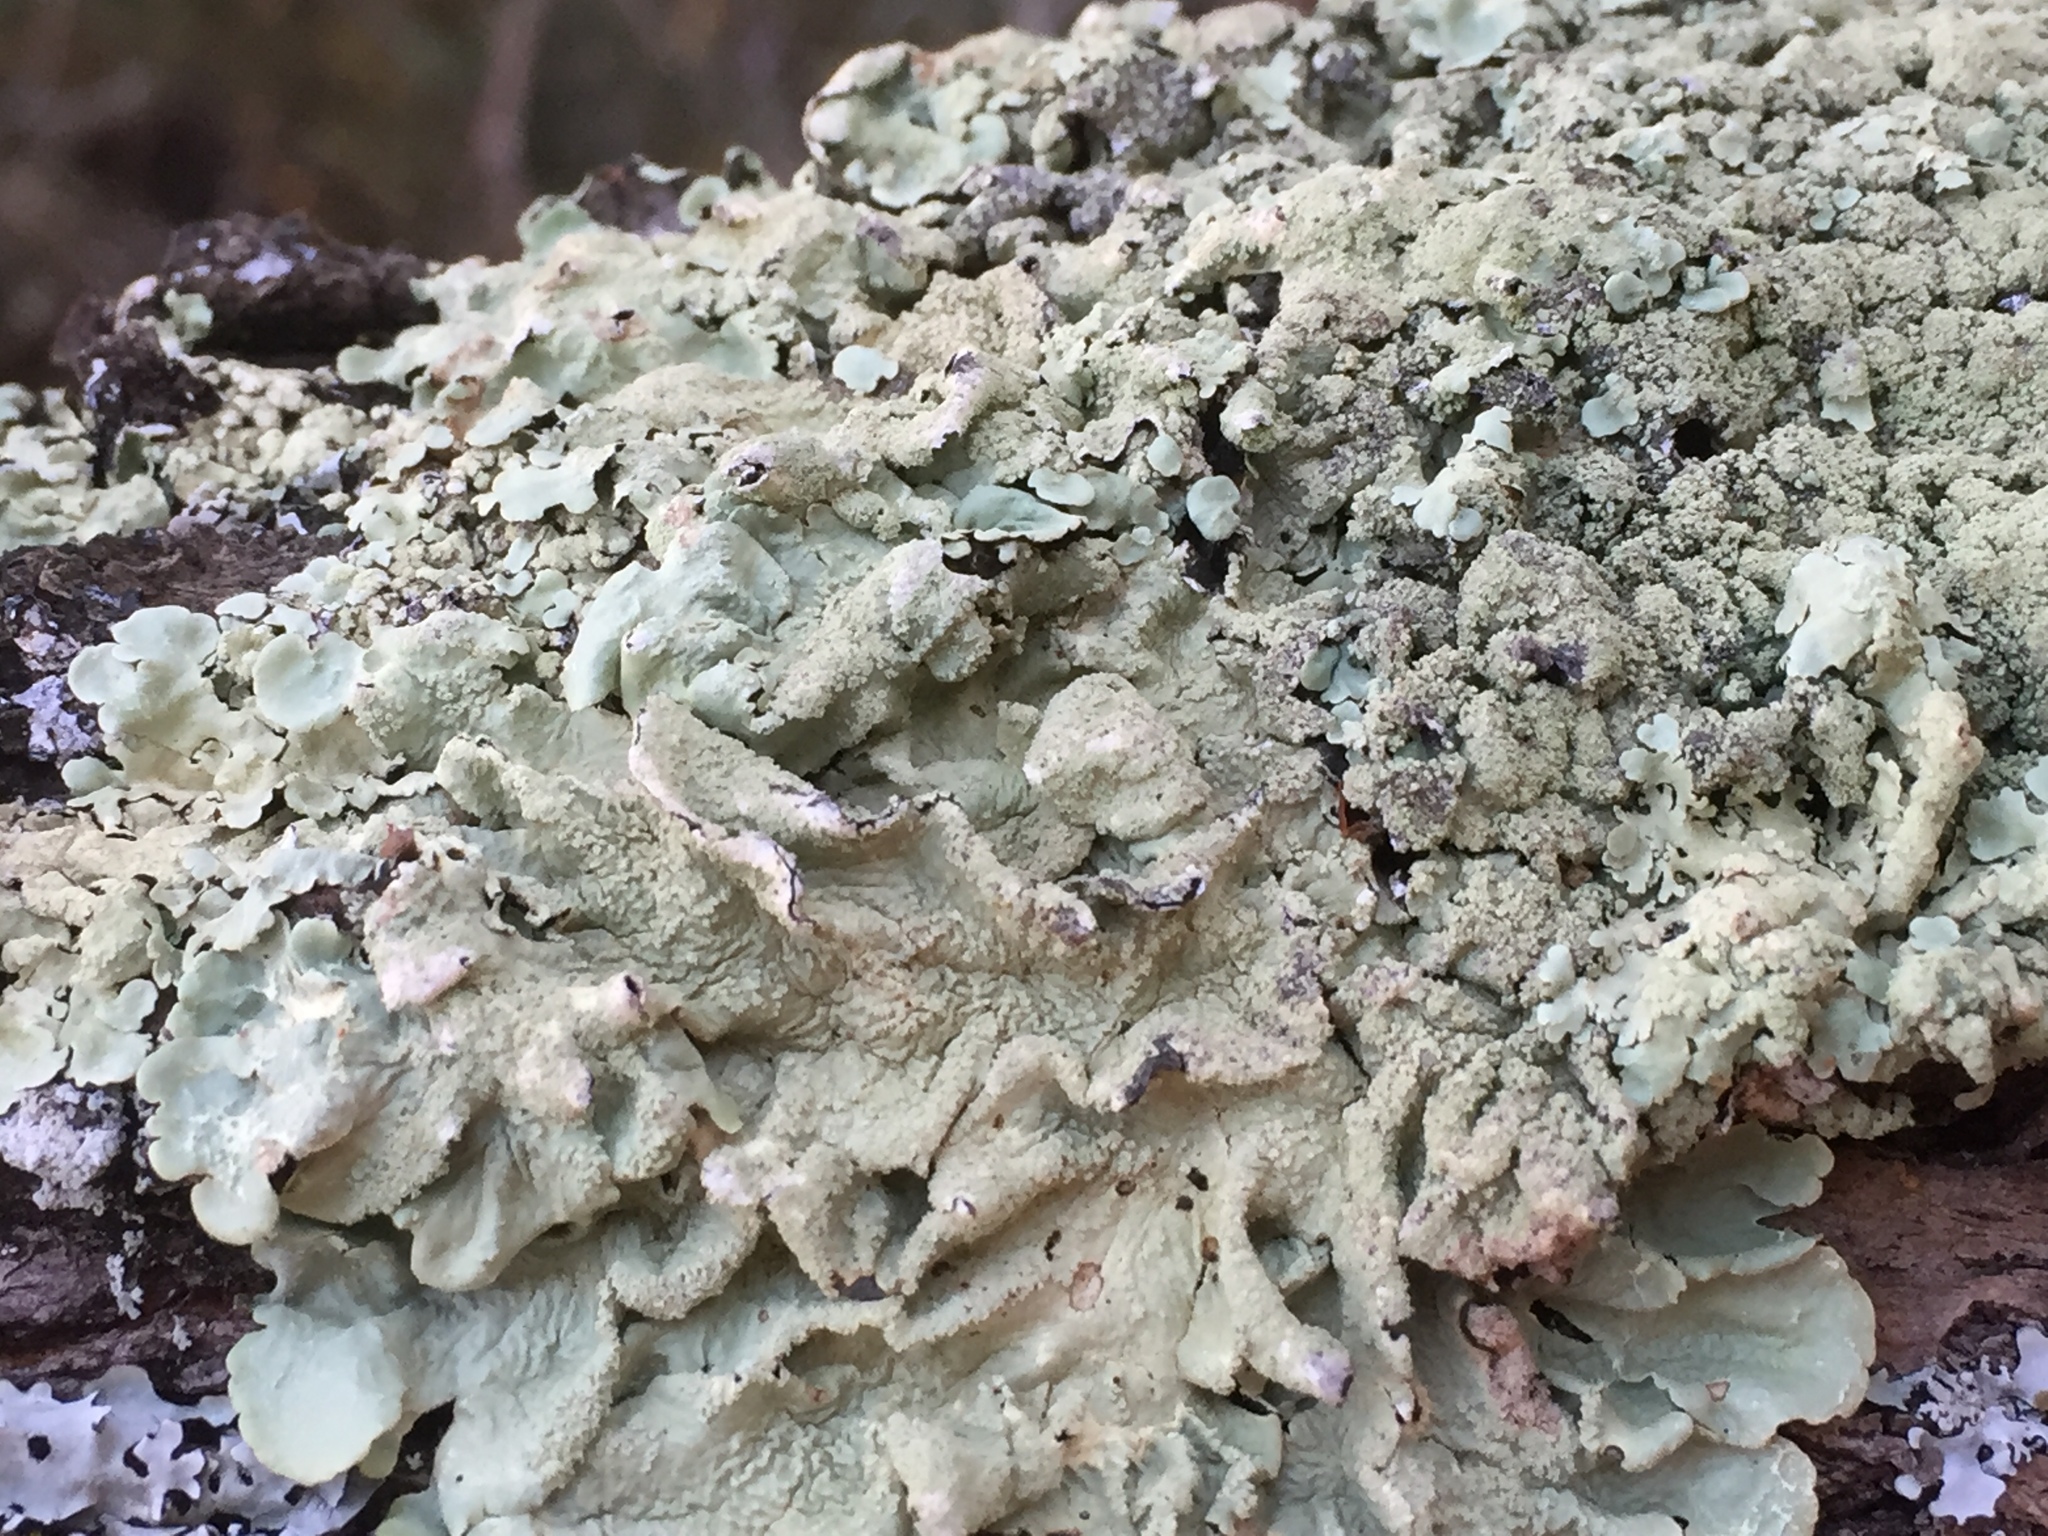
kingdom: Fungi
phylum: Ascomycota
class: Lecanoromycetes
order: Lecanorales
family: Parmeliaceae
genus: Flavoparmelia
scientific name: Flavoparmelia caperata
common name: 40-mile per hour lichen
